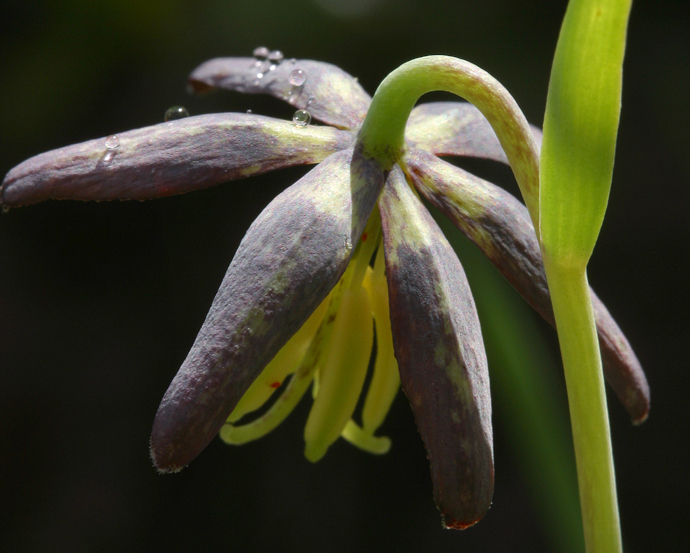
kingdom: Plantae
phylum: Tracheophyta
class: Liliopsida
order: Liliales
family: Liliaceae
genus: Fritillaria
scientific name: Fritillaria atropurpurea
